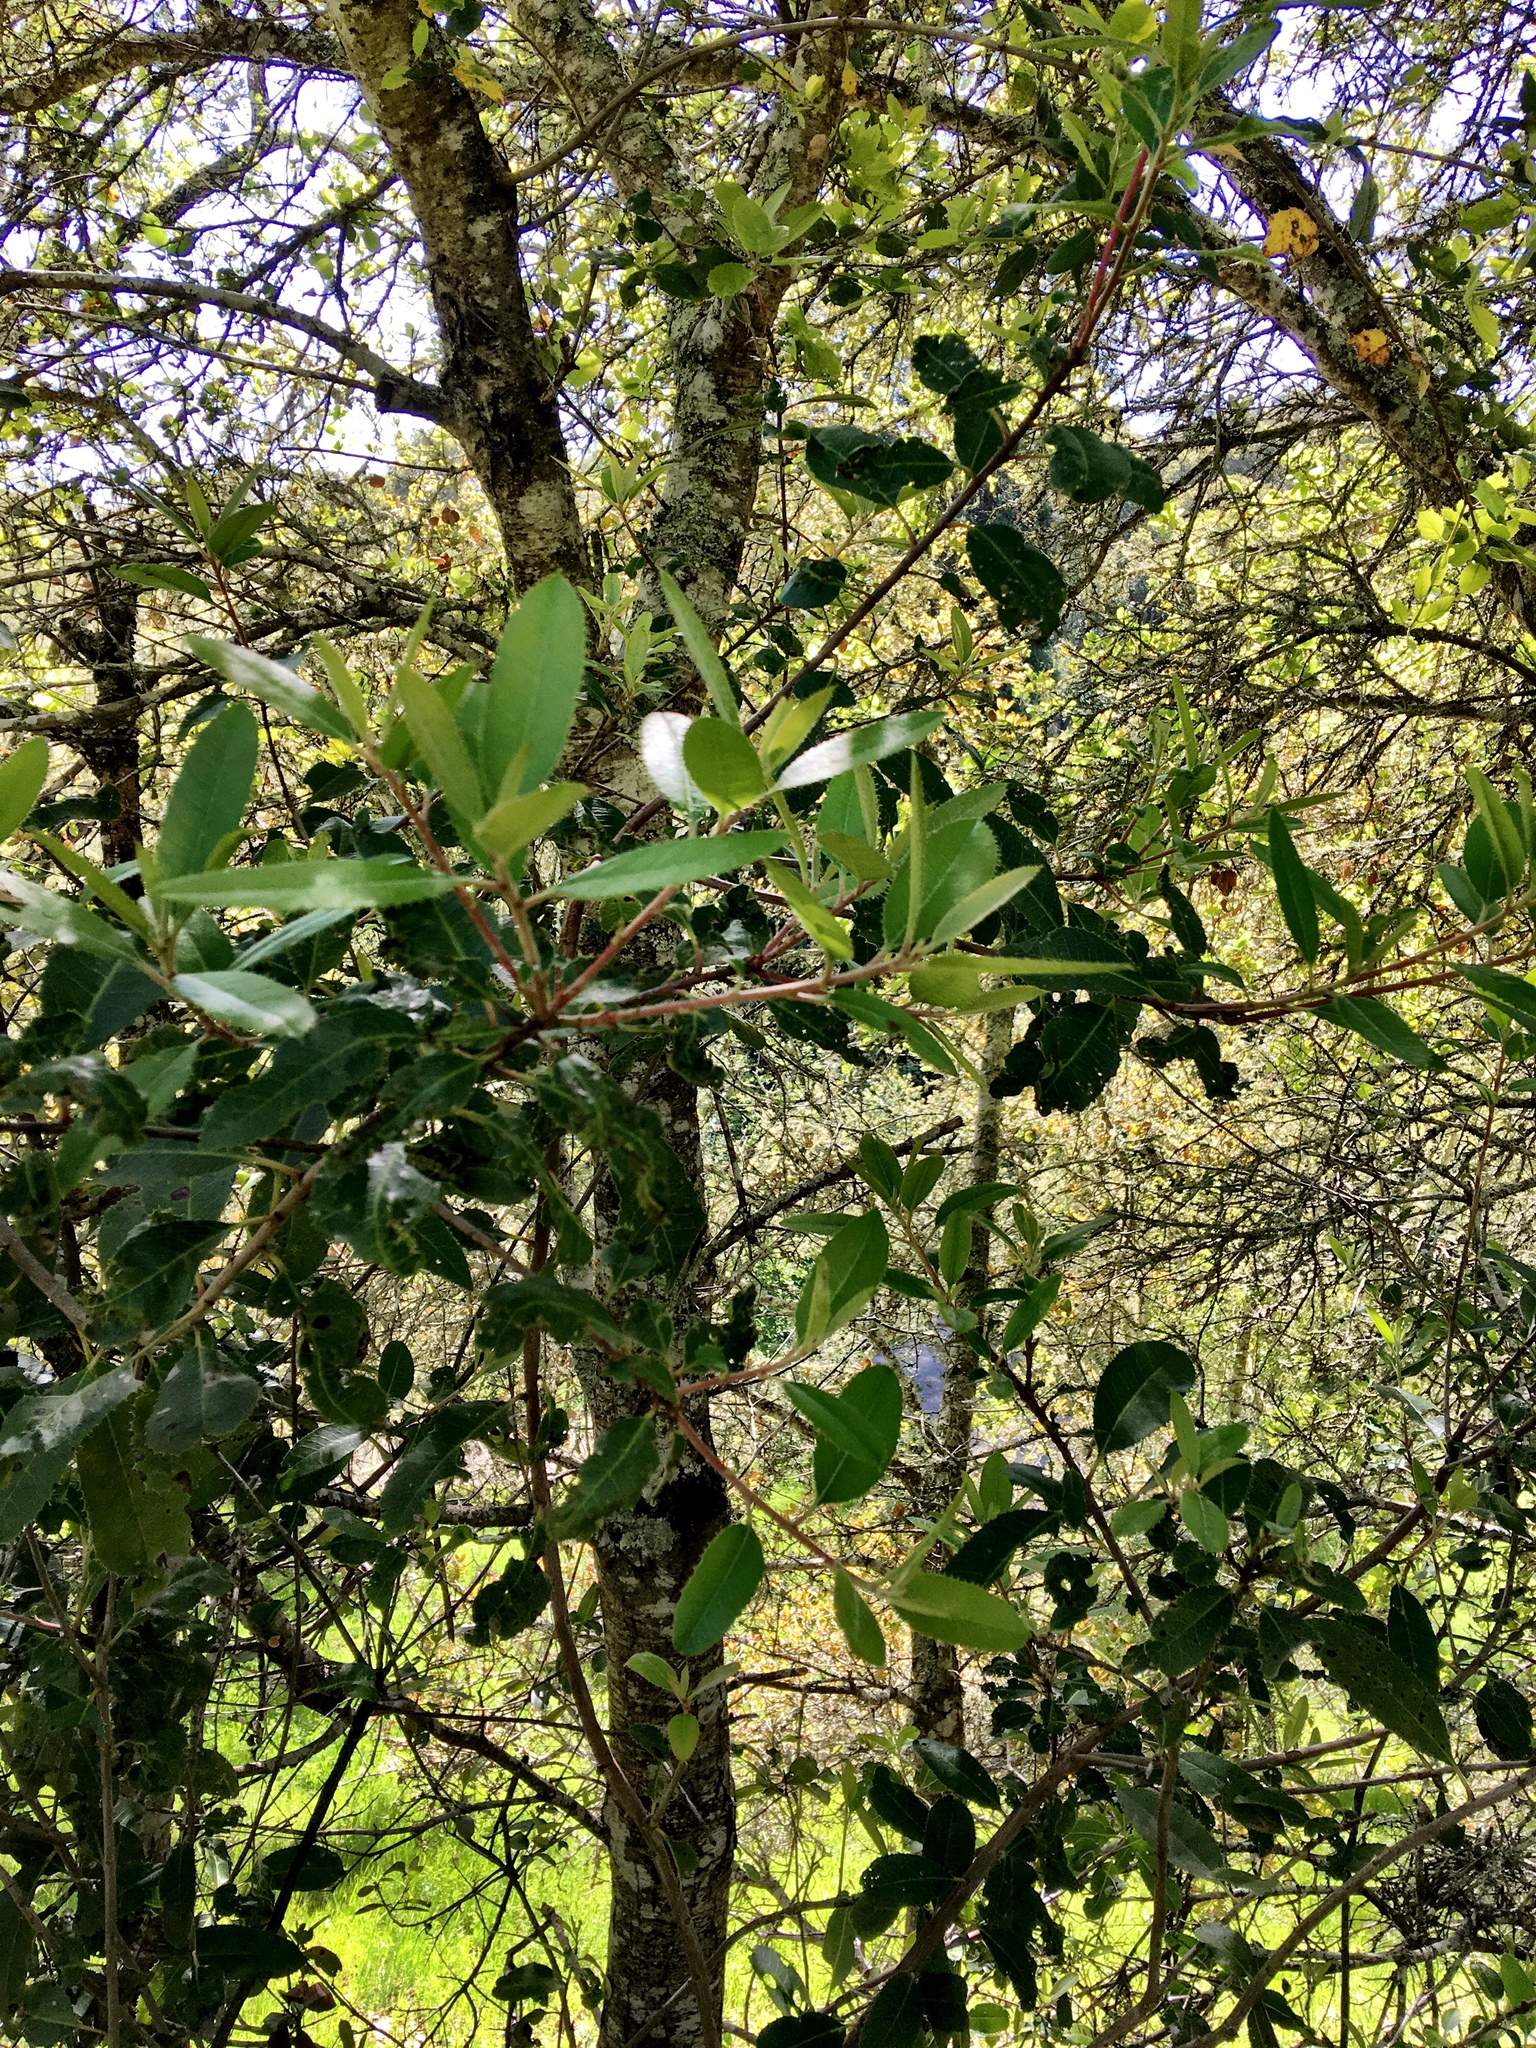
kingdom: Plantae
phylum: Tracheophyta
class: Magnoliopsida
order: Rosales
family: Rosaceae
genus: Heteromeles
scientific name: Heteromeles arbutifolia
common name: California-holly
